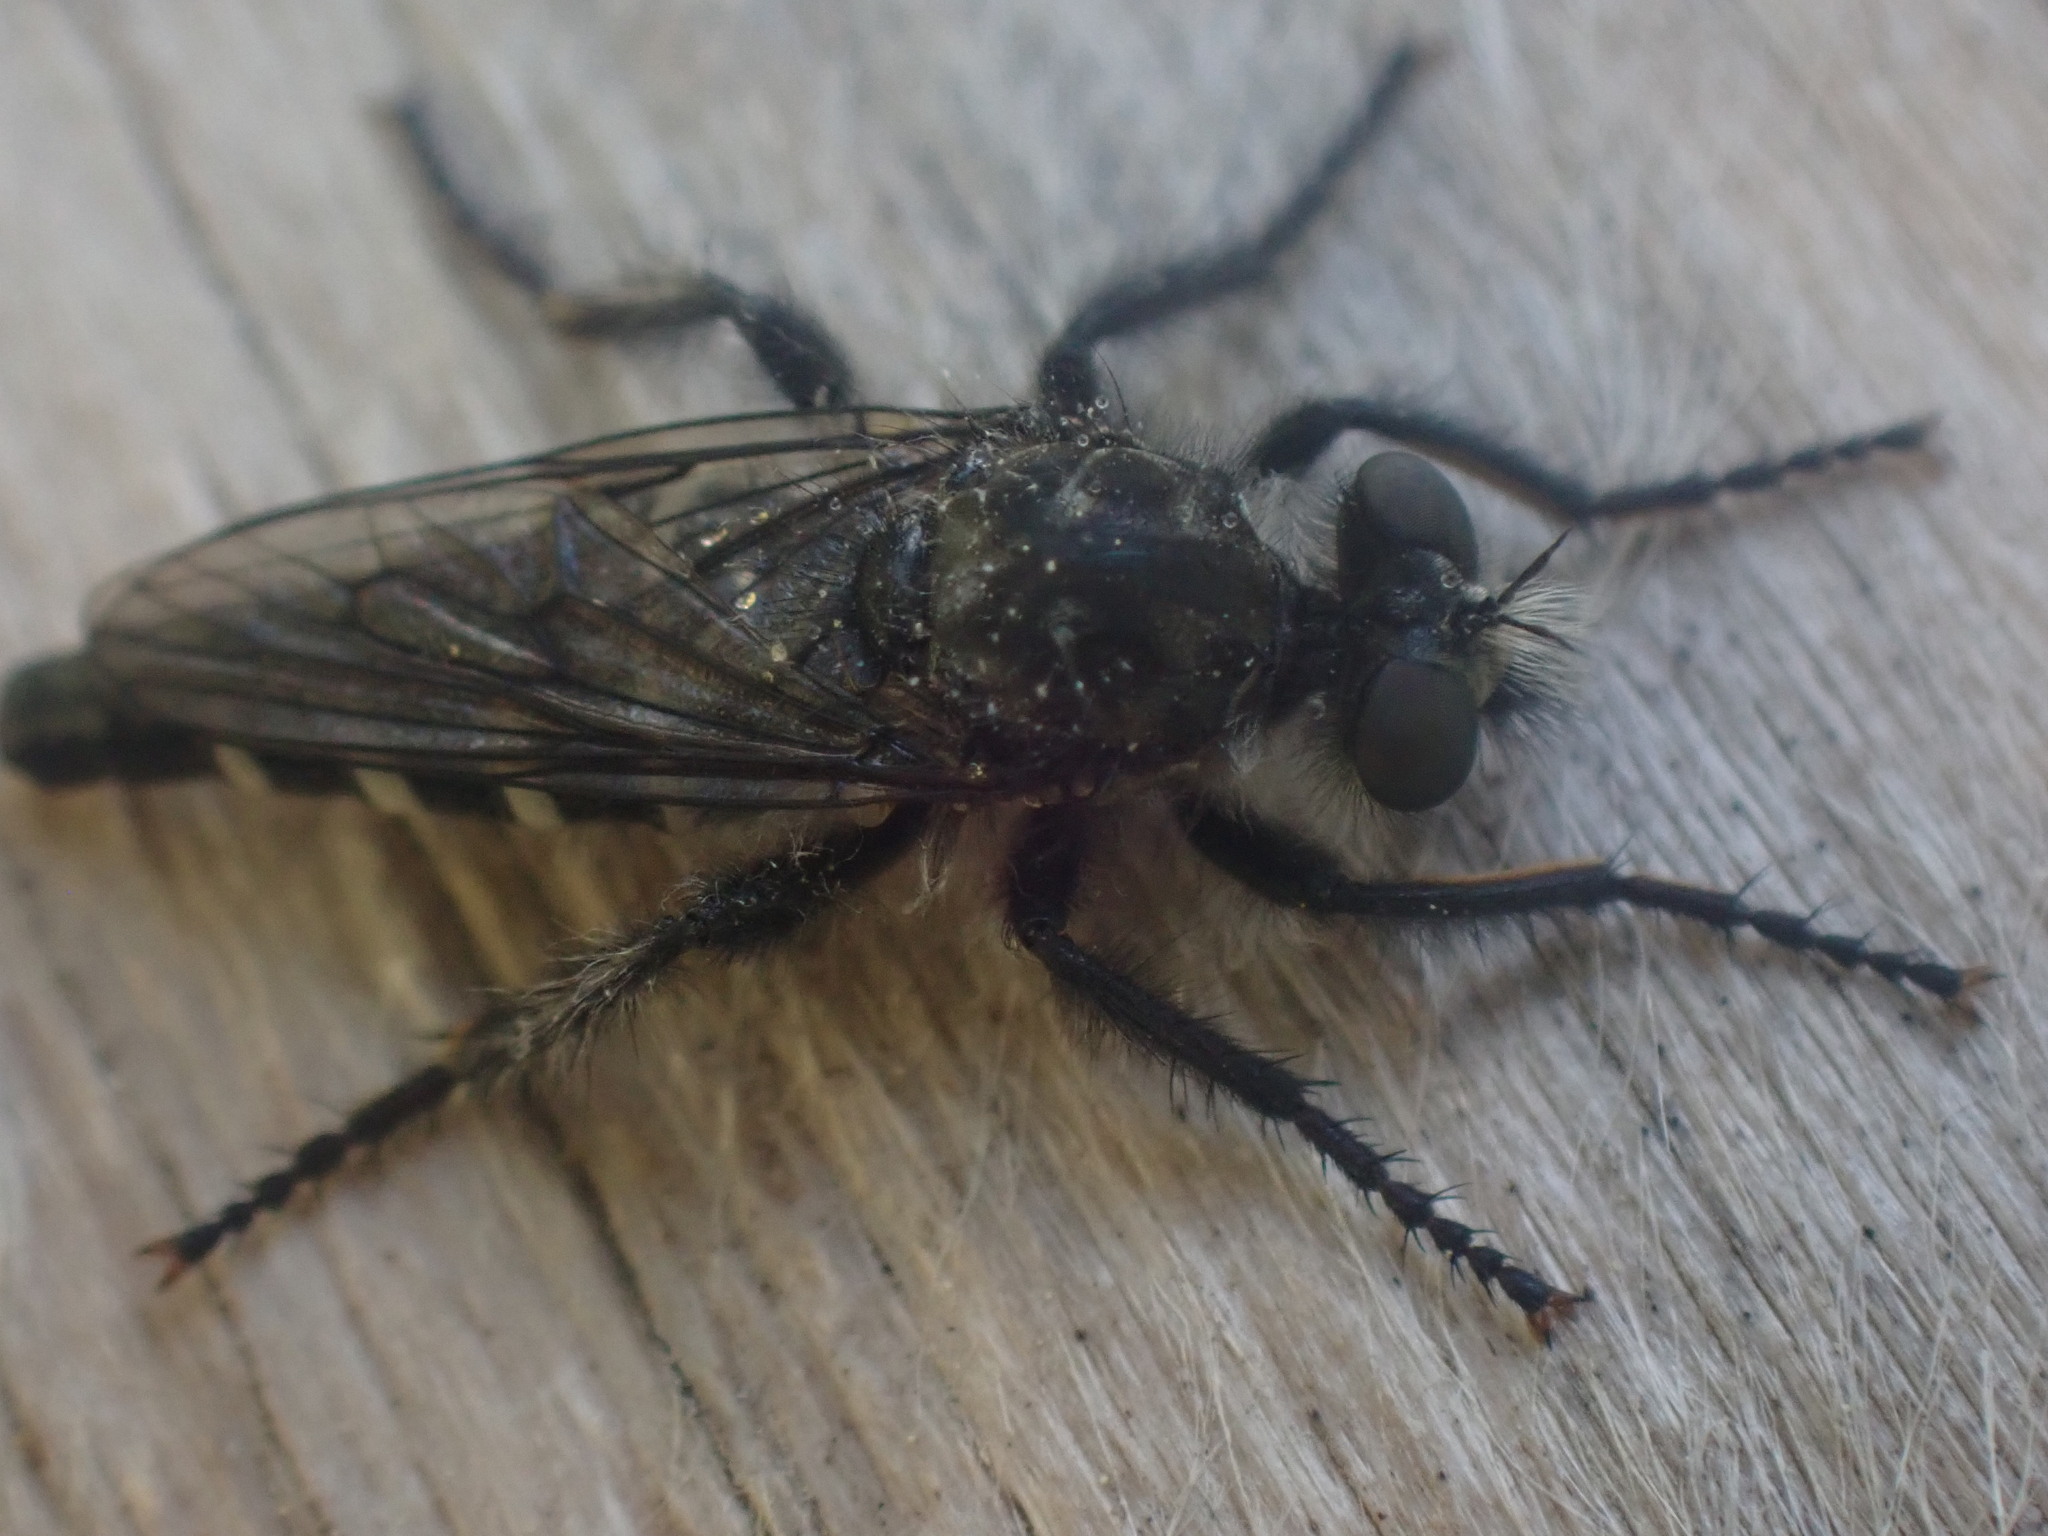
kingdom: Animalia
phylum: Arthropoda
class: Insecta
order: Diptera
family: Asilidae
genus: Cyrtopogon
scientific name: Cyrtopogon montanus
